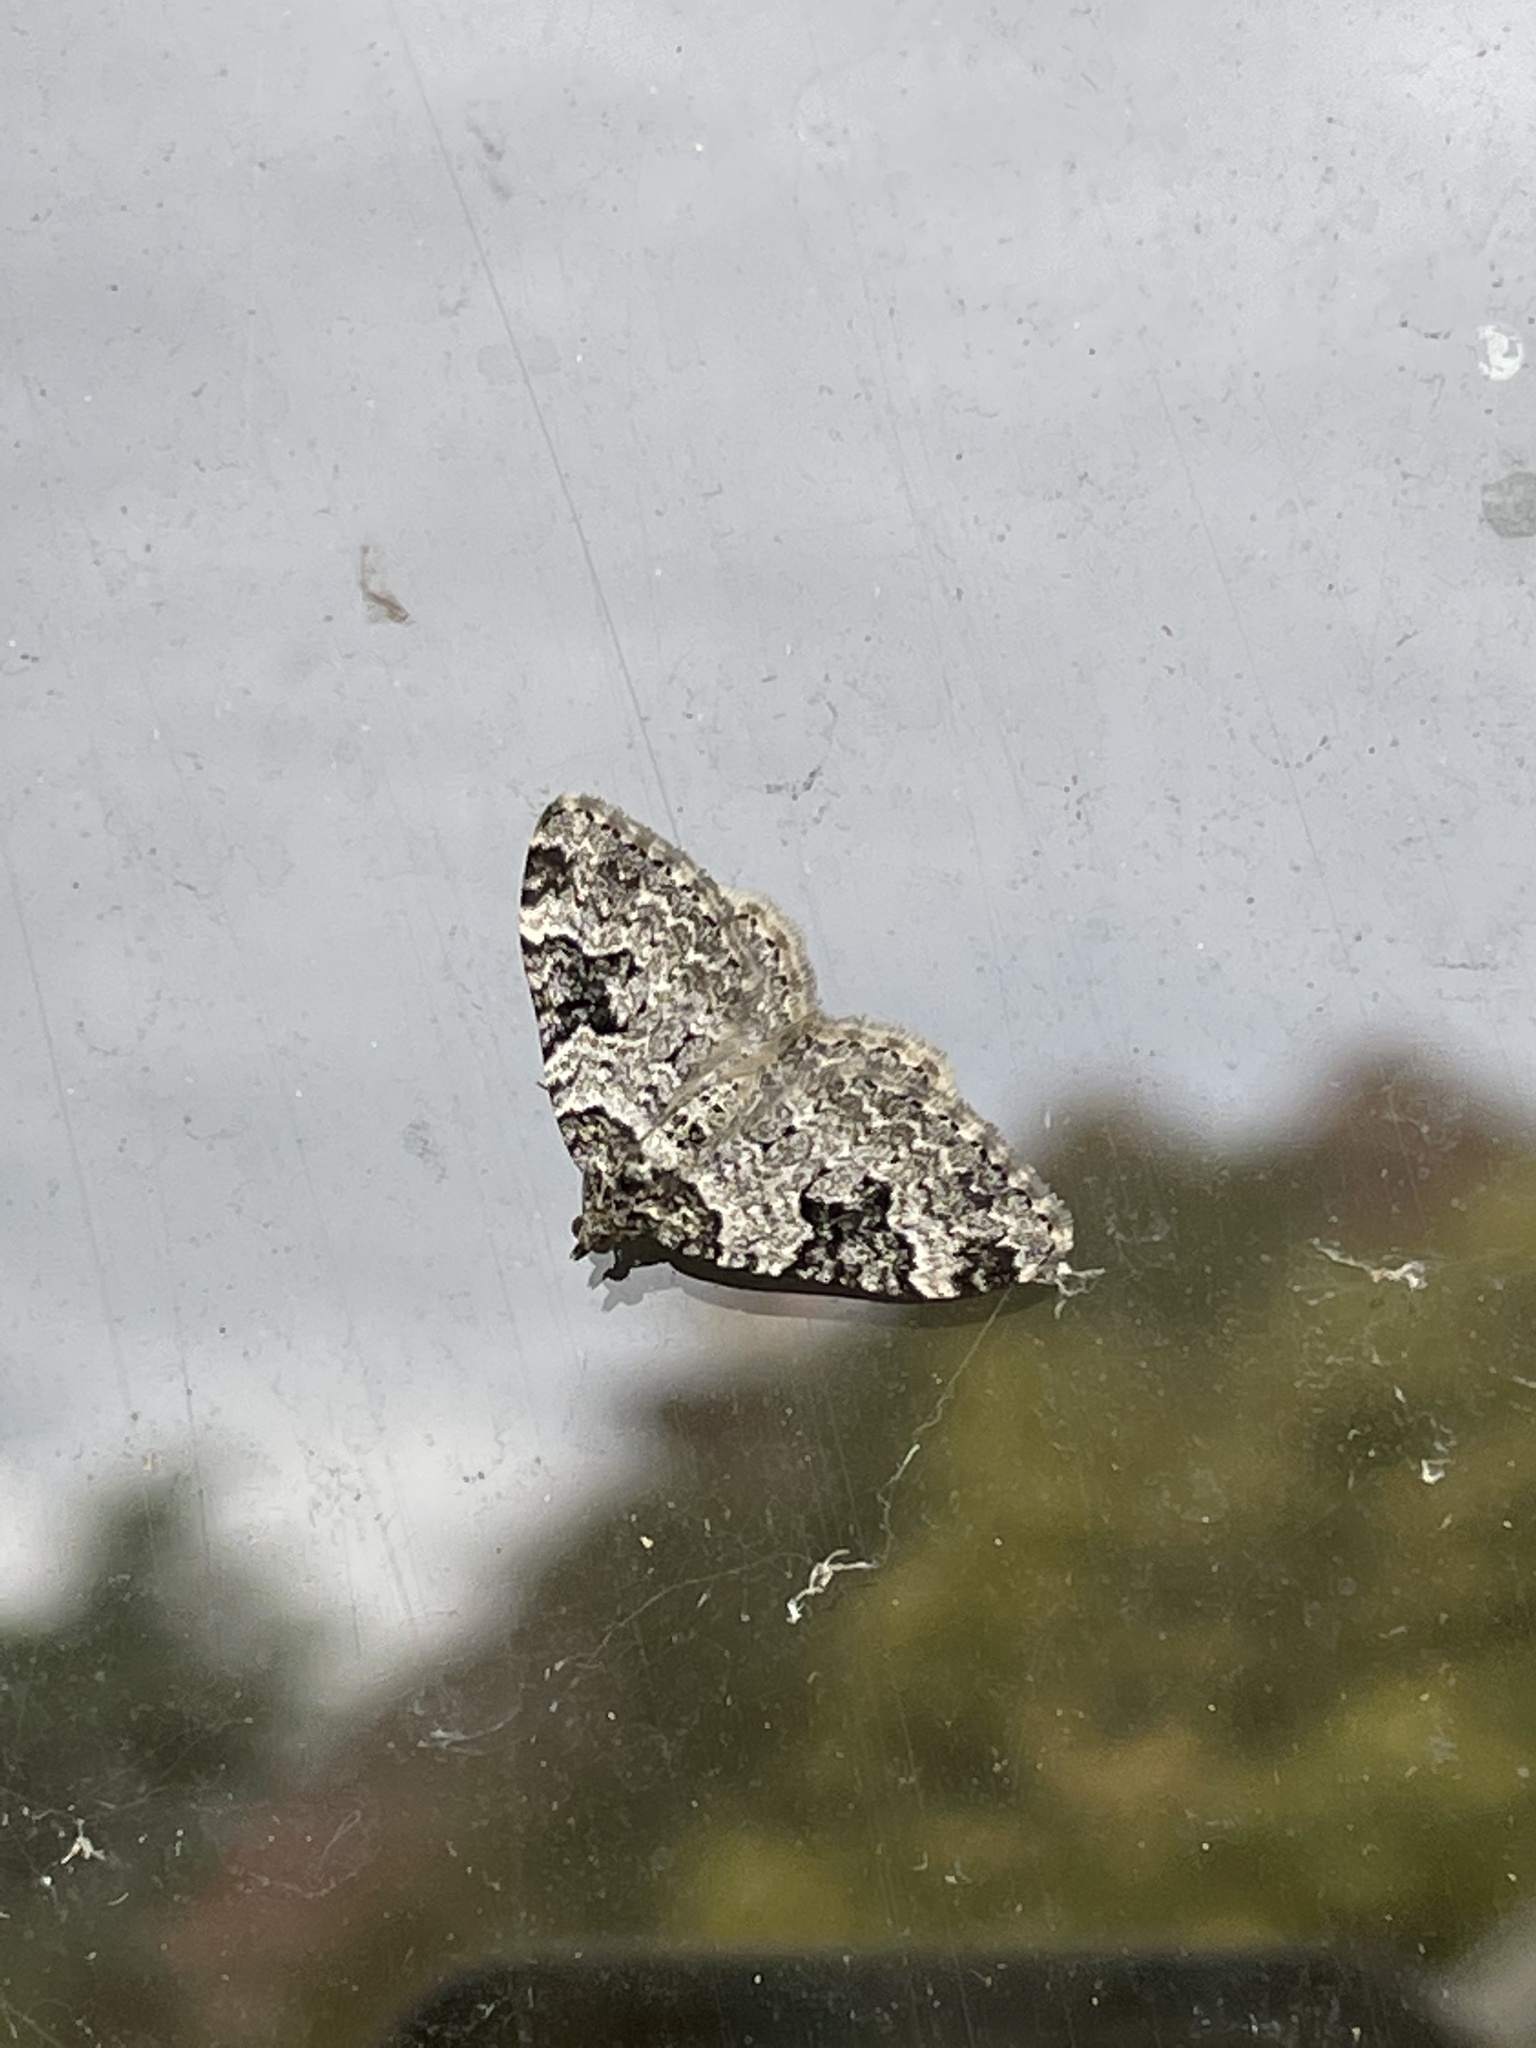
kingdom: Animalia
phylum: Arthropoda
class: Insecta
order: Lepidoptera
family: Geometridae
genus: Xanthorhoe
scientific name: Xanthorhoe fluctuata
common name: Garden carpet
